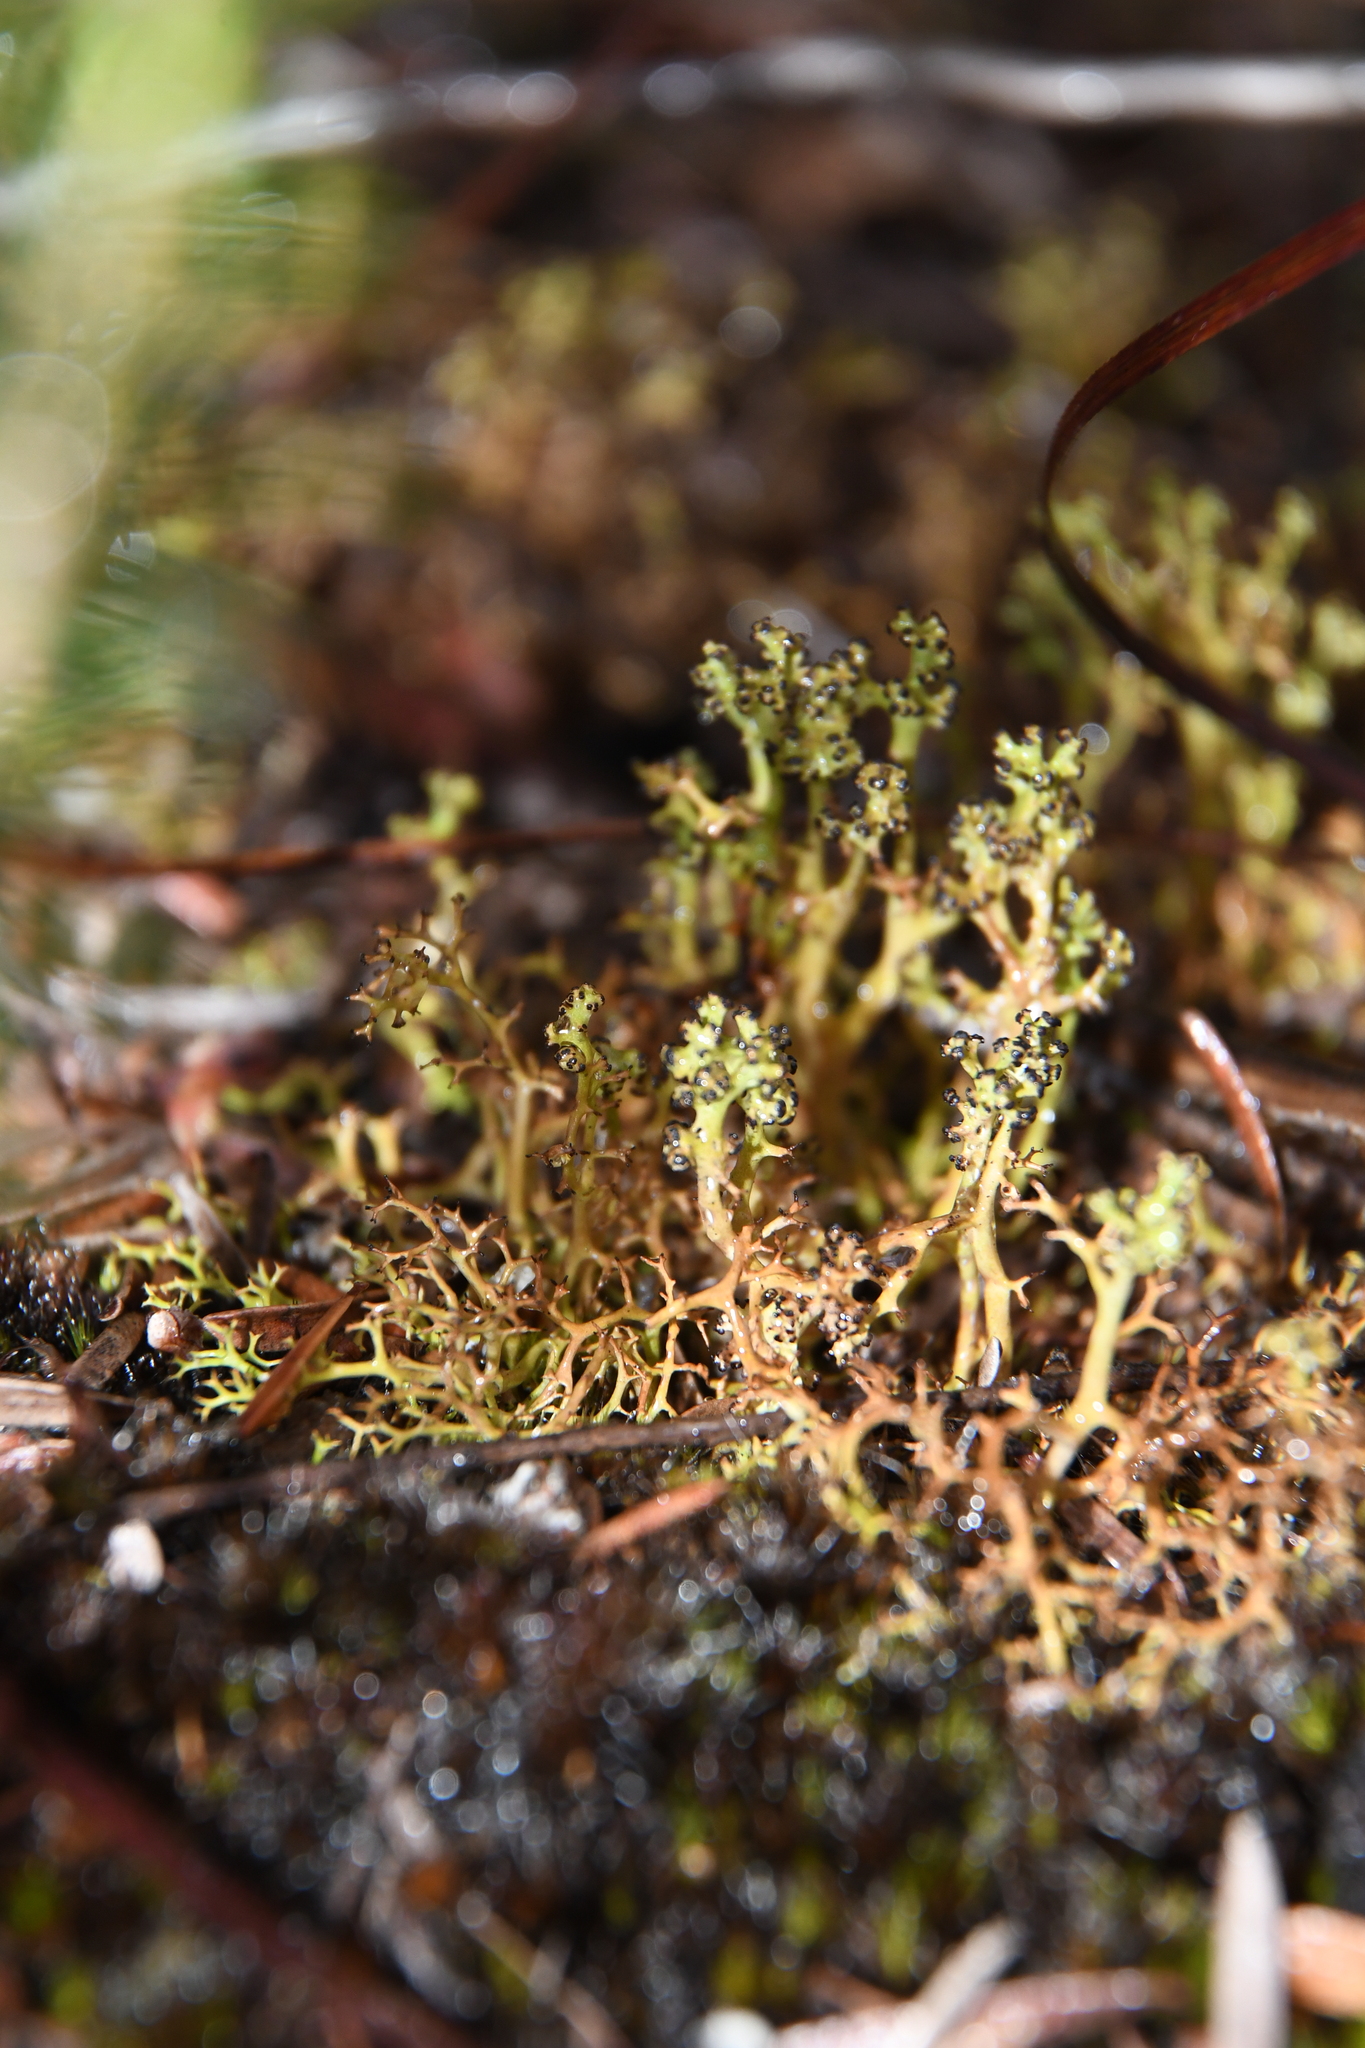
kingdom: Fungi
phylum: Ascomycota
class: Lecanoromycetes
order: Lecanorales
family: Cladoniaceae
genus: Cladia
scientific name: Cladia aggregata
